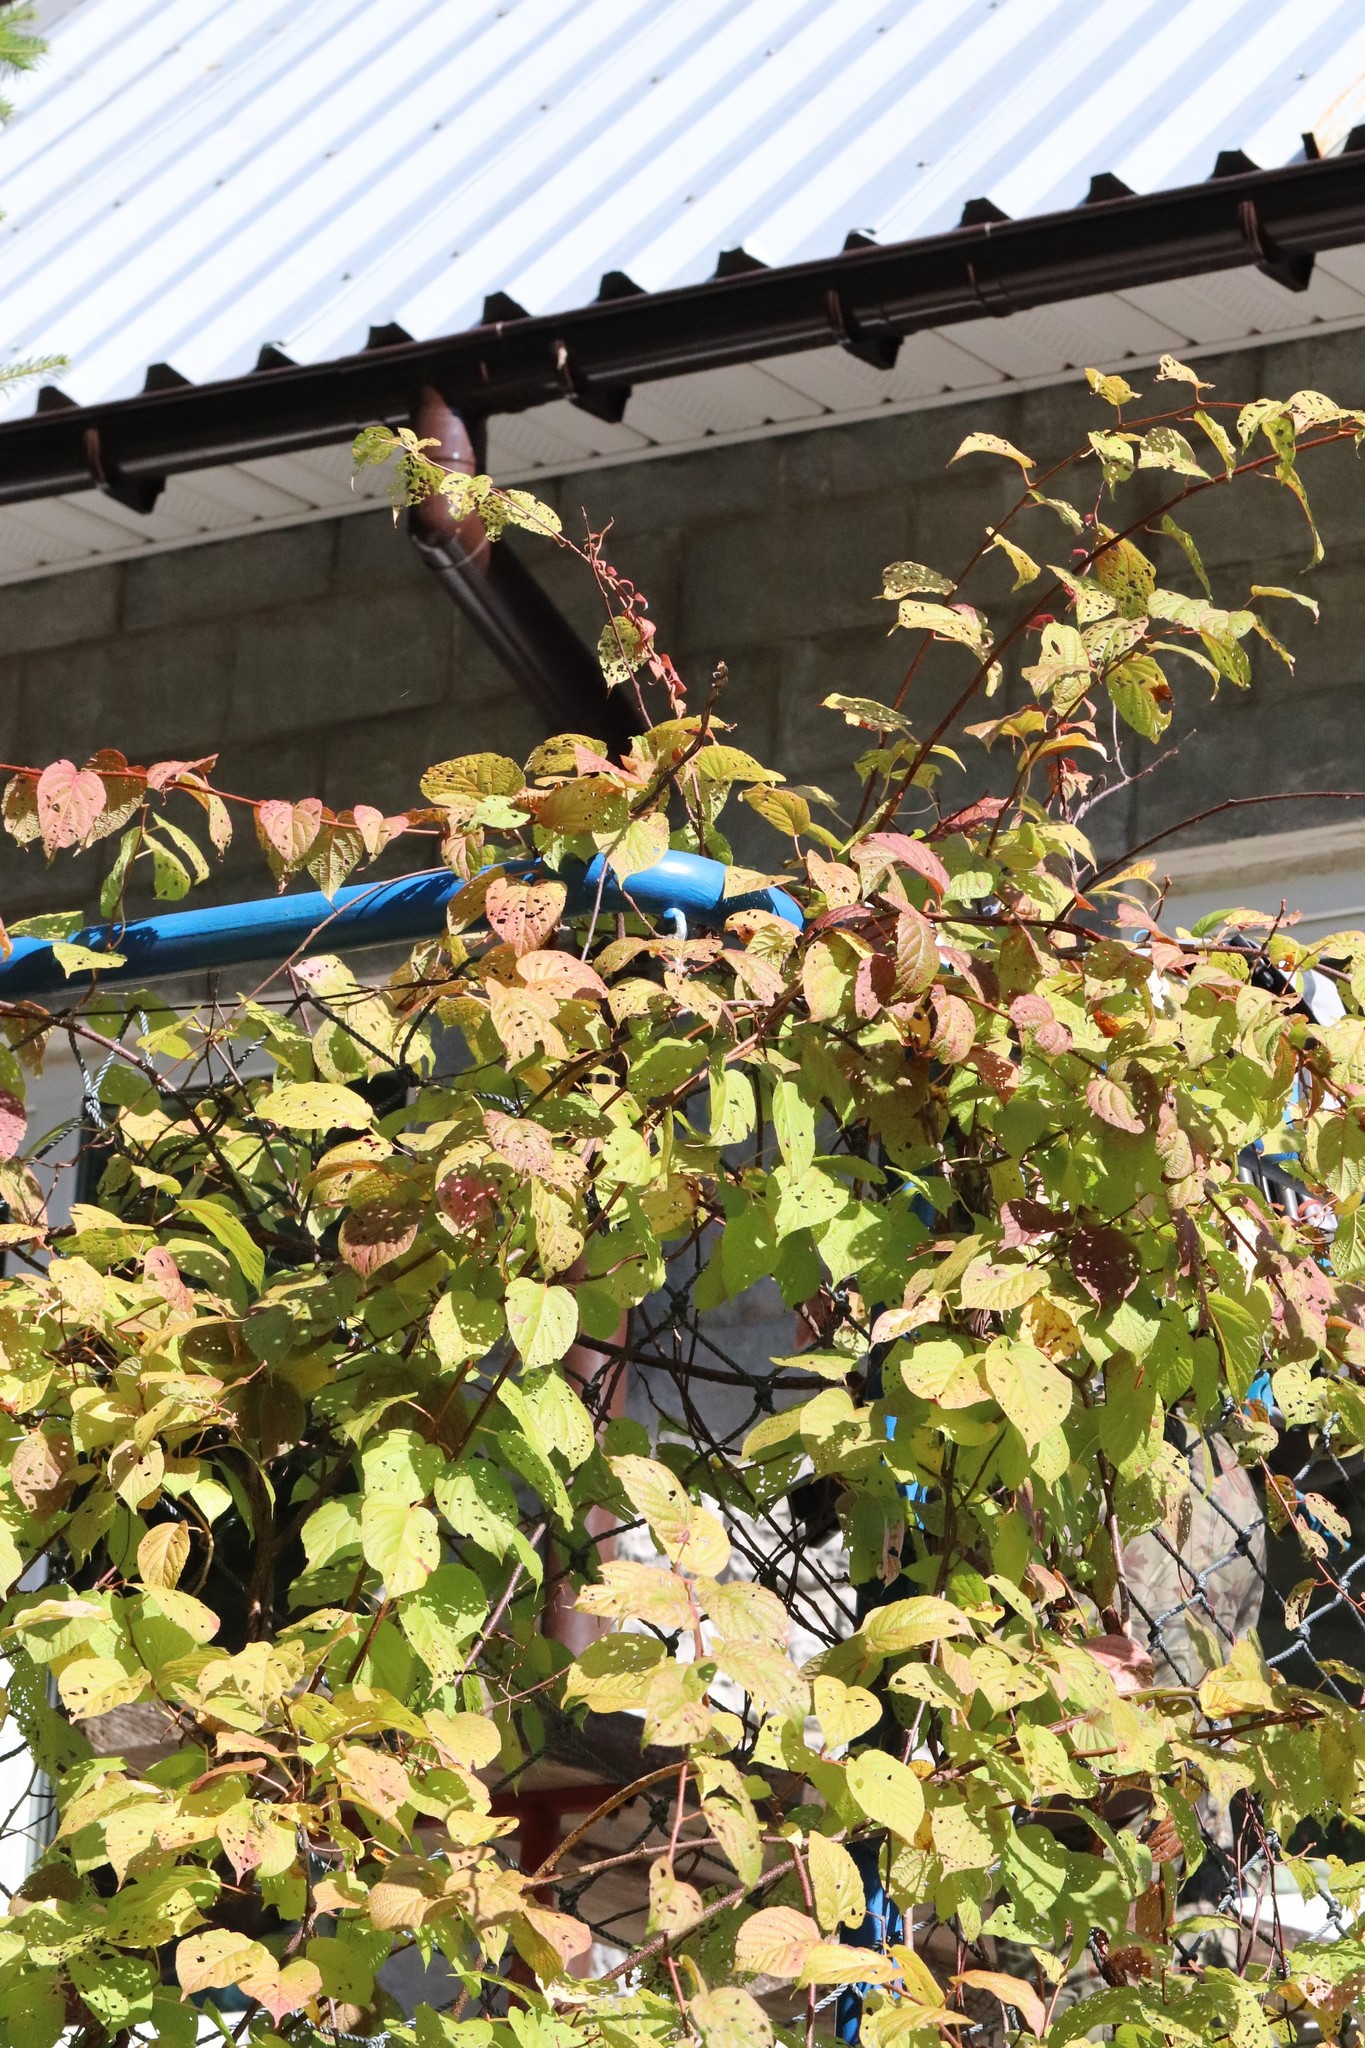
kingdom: Plantae
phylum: Tracheophyta
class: Magnoliopsida
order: Ericales
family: Actinidiaceae
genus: Actinidia
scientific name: Actinidia kolomikta
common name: Arctic beauty kiwi
